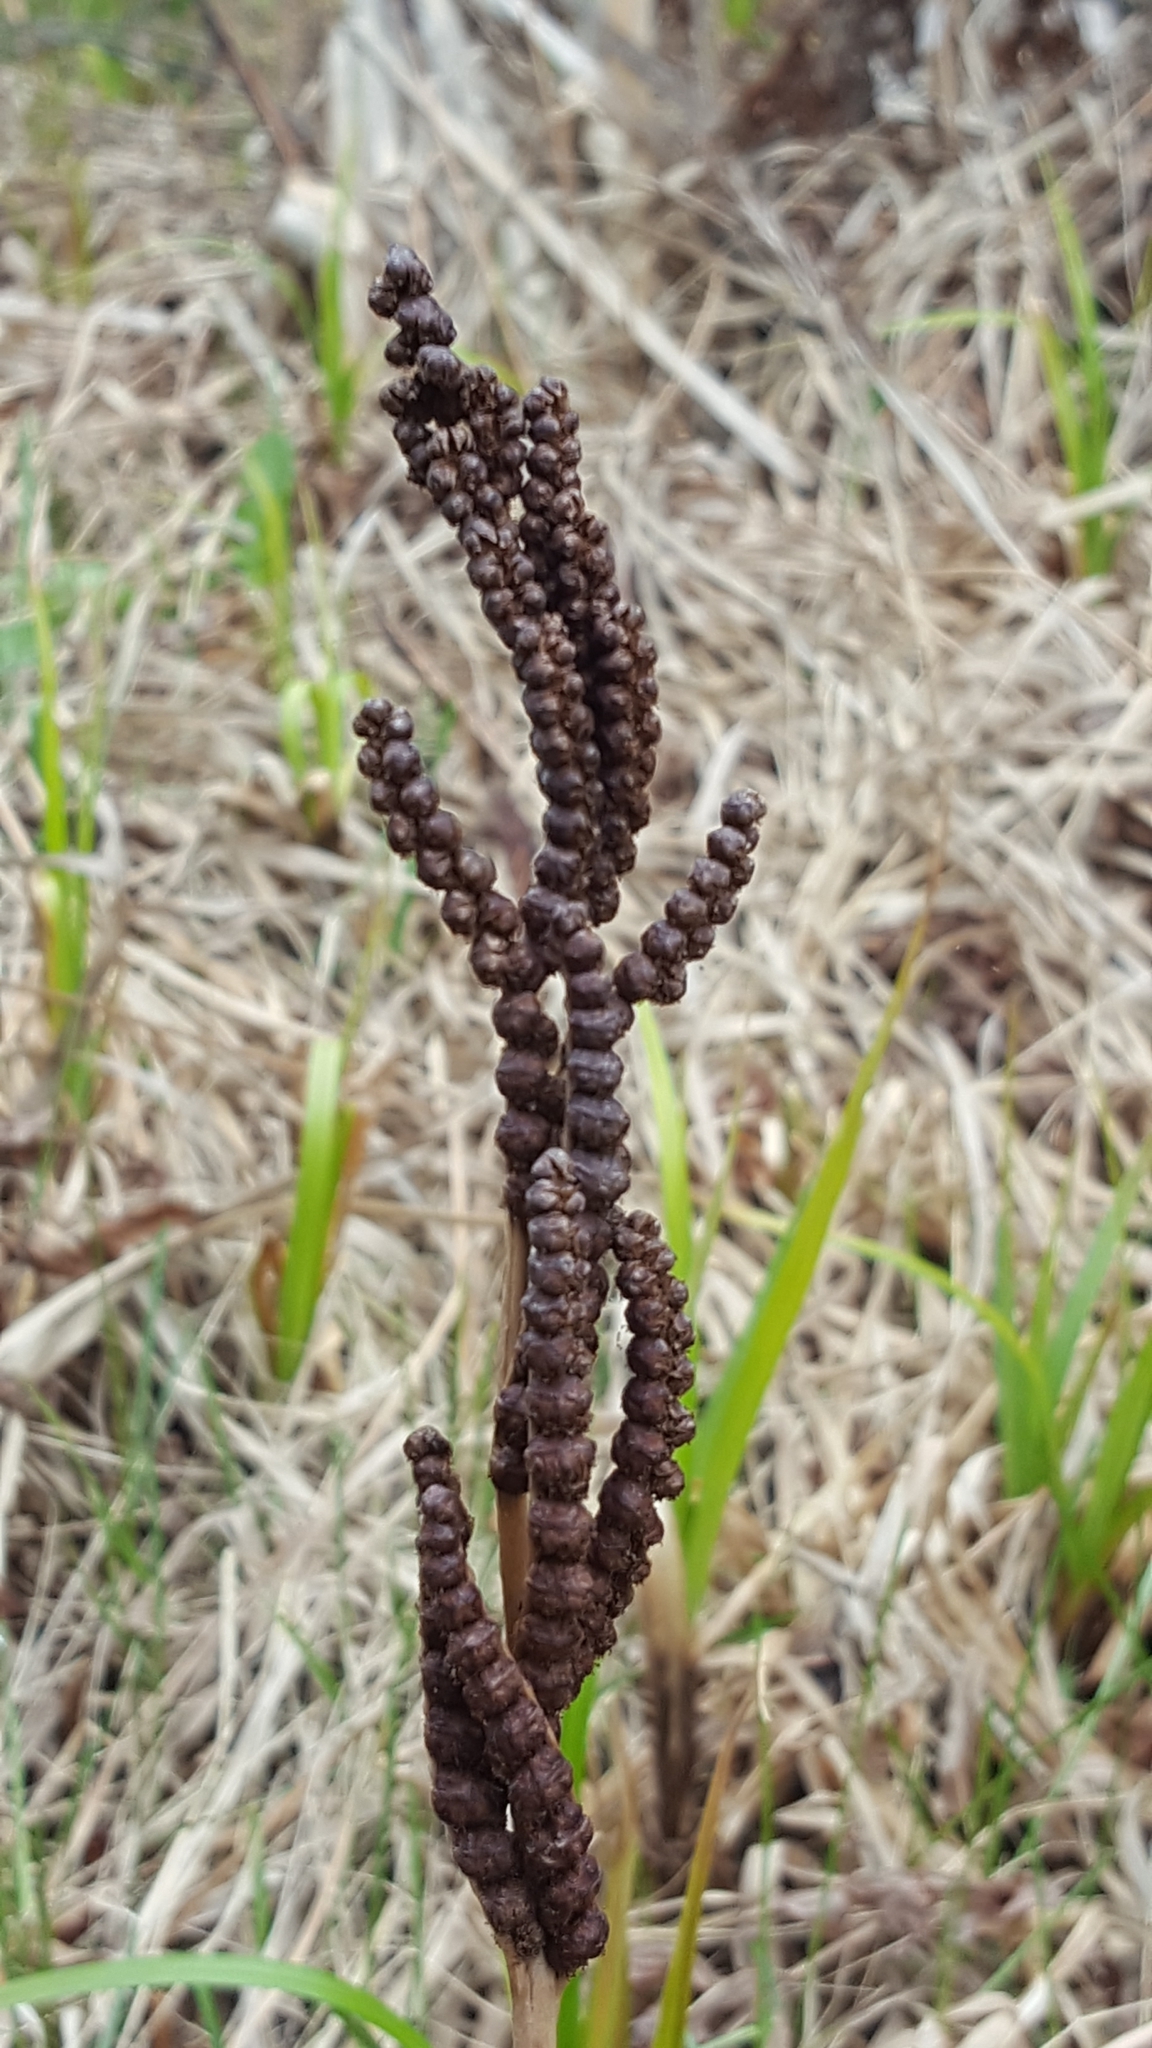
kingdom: Plantae
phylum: Tracheophyta
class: Polypodiopsida
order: Polypodiales
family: Onocleaceae
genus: Onoclea
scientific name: Onoclea sensibilis
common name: Sensitive fern
